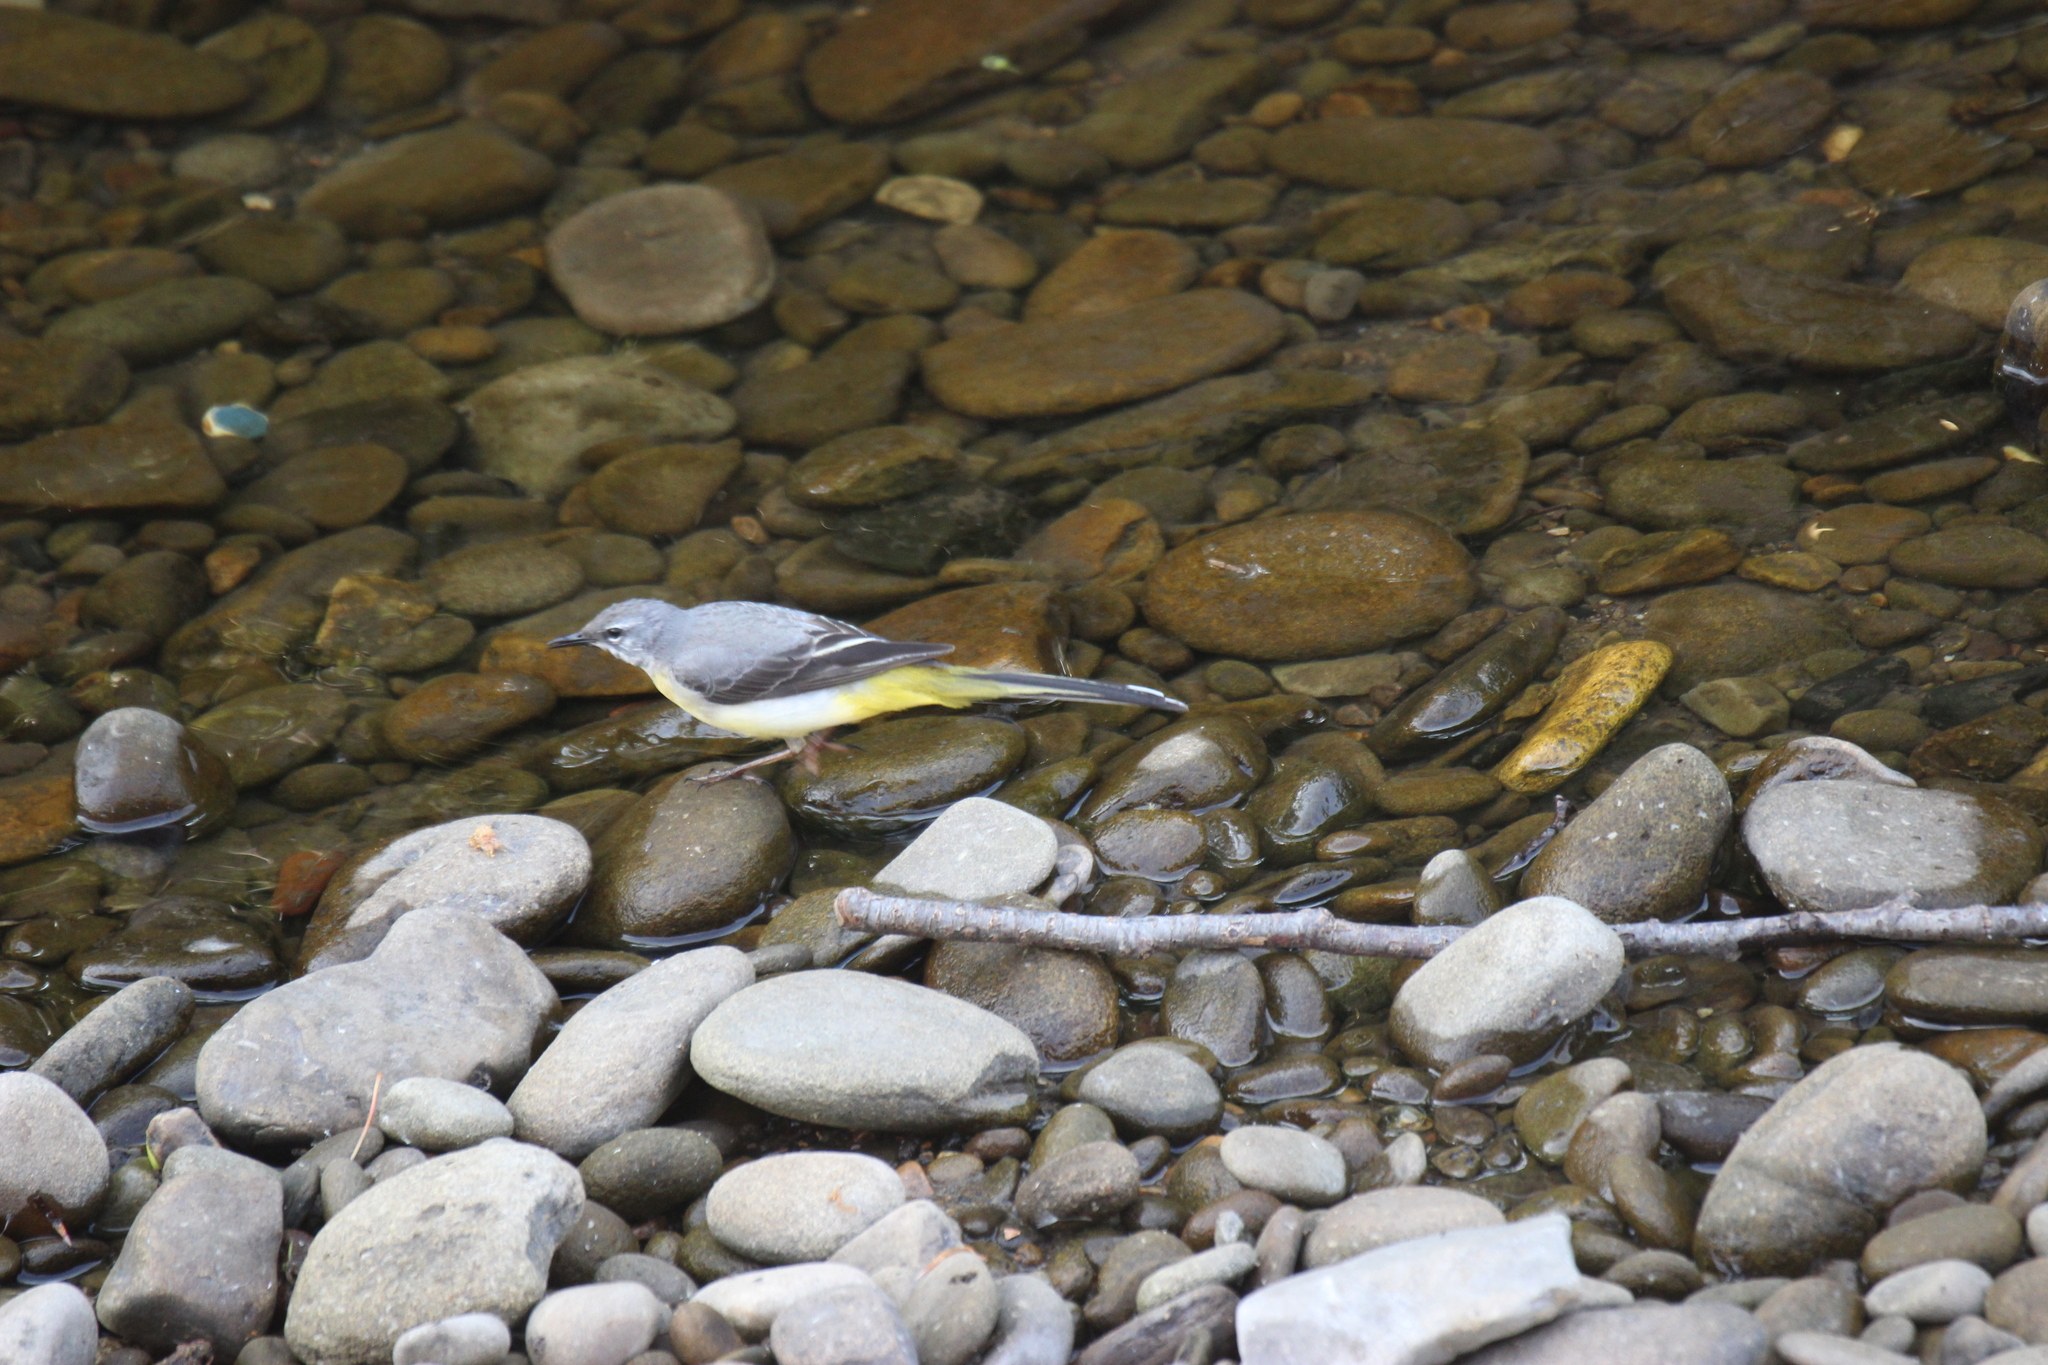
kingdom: Animalia
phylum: Chordata
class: Aves
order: Passeriformes
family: Motacillidae
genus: Motacilla
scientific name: Motacilla cinerea
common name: Grey wagtail
